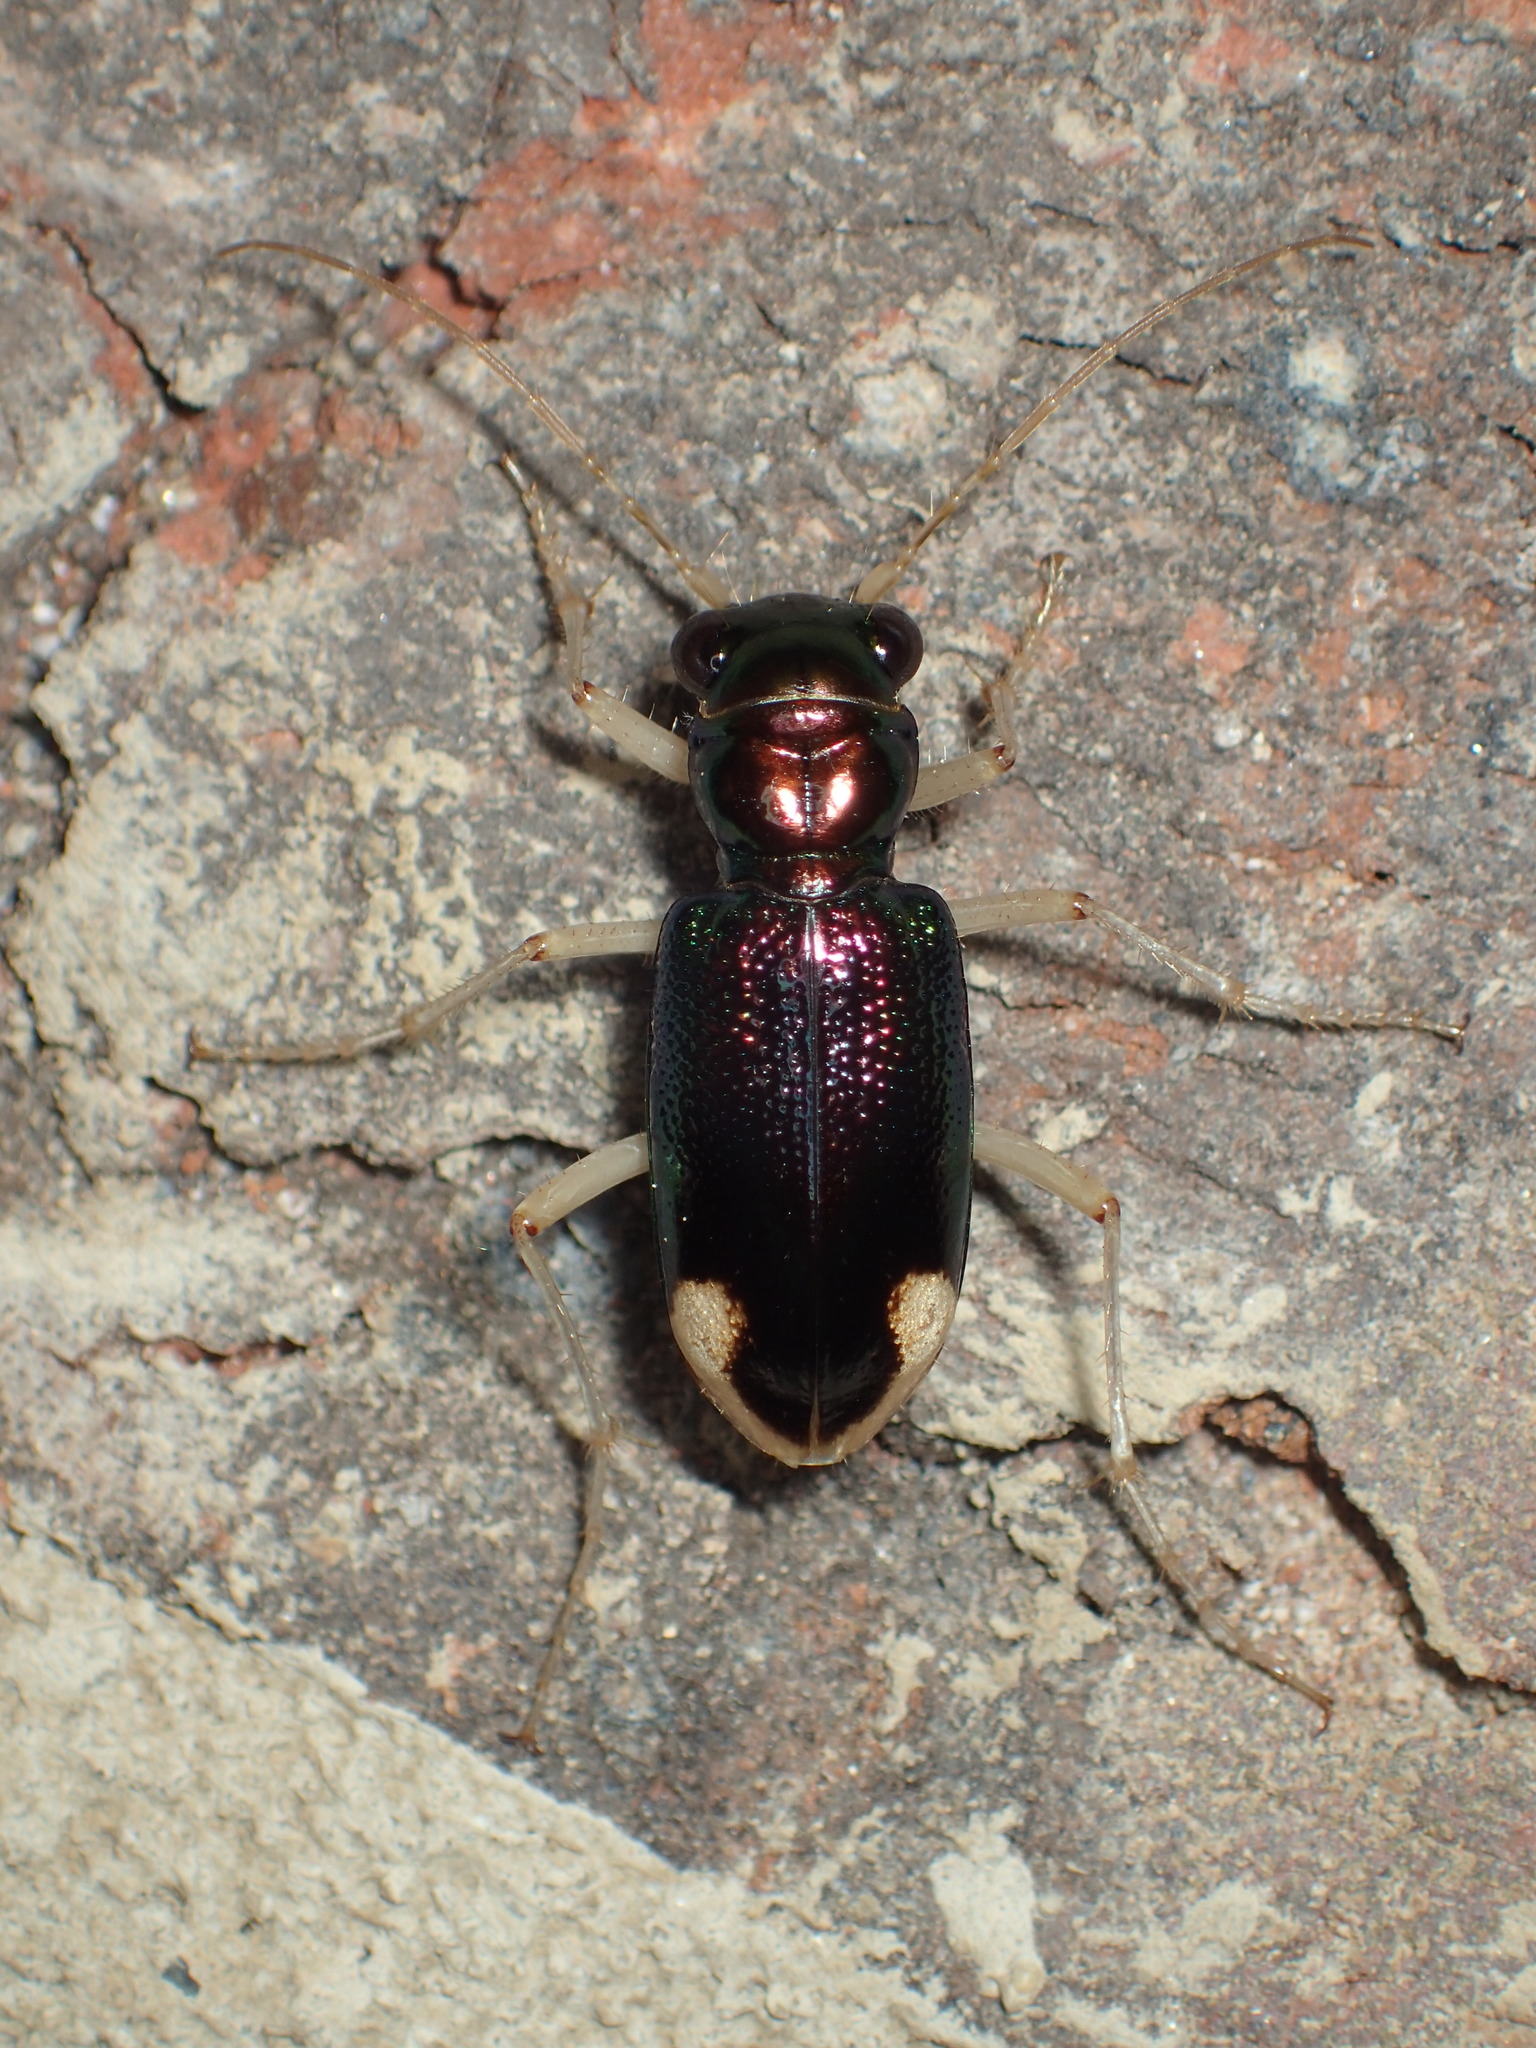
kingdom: Animalia
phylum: Arthropoda
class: Insecta
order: Coleoptera
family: Carabidae
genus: Tetracha
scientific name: Tetracha carolina
